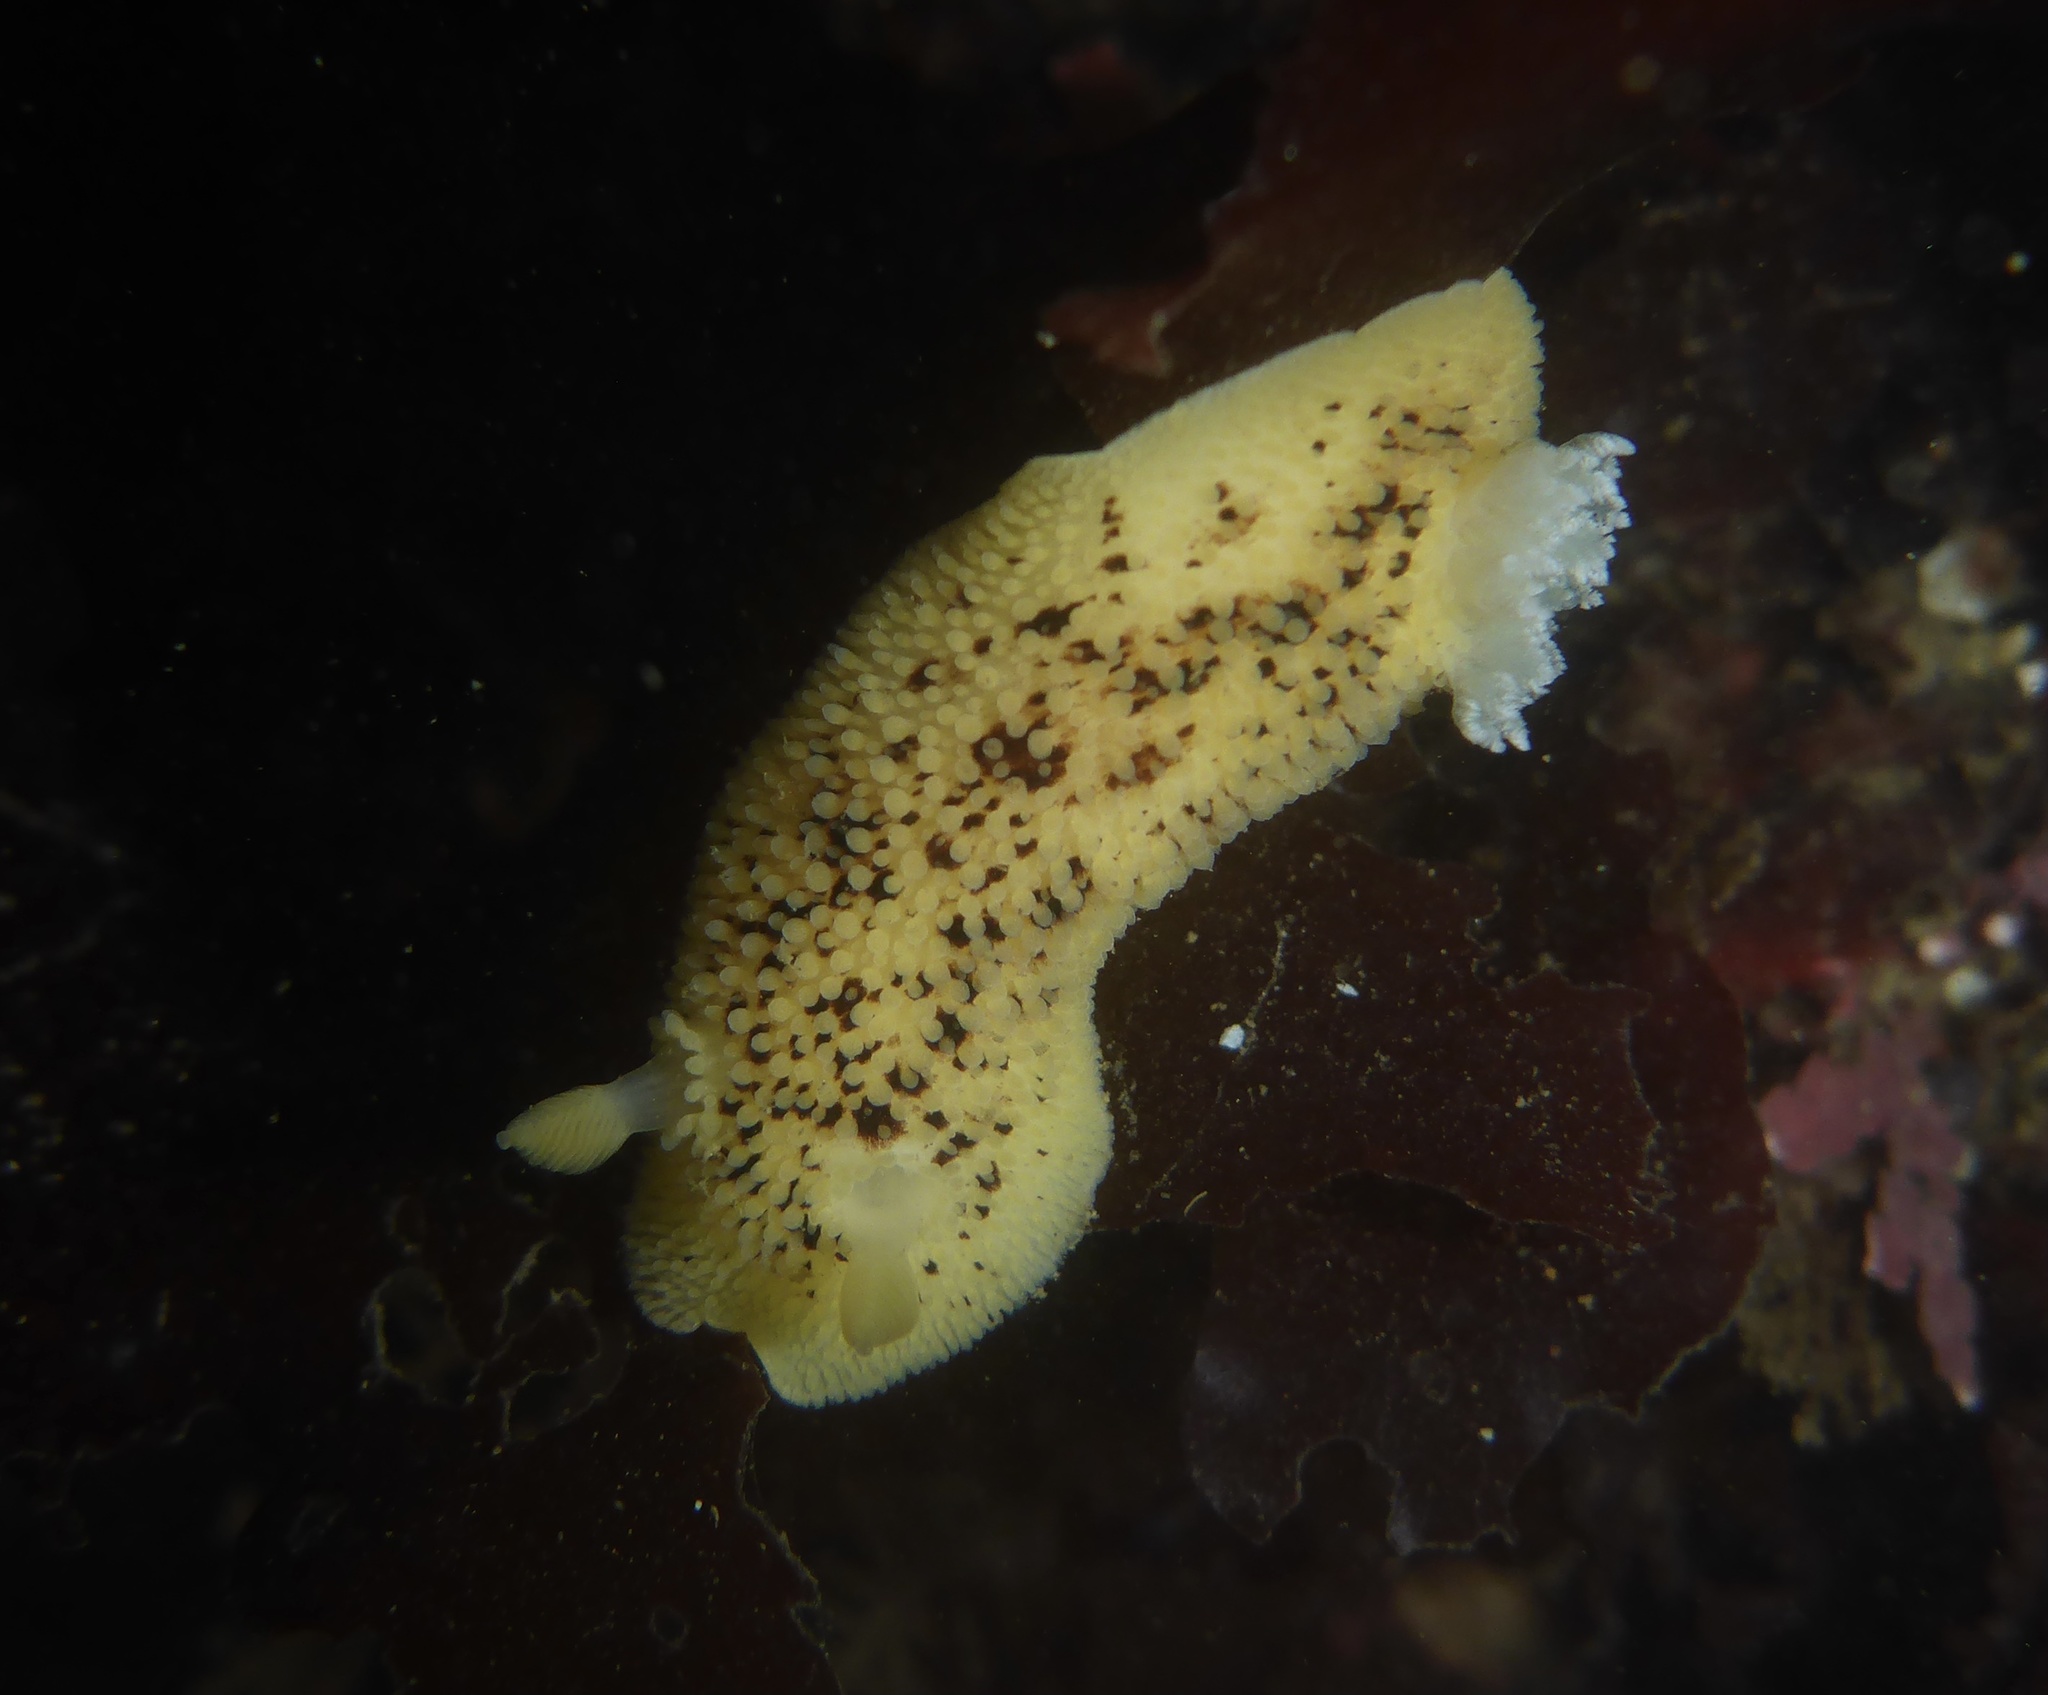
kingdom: Animalia
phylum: Mollusca
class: Gastropoda
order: Nudibranchia
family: Discodorididae
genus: Peltodoris
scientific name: Peltodoris nobilis
